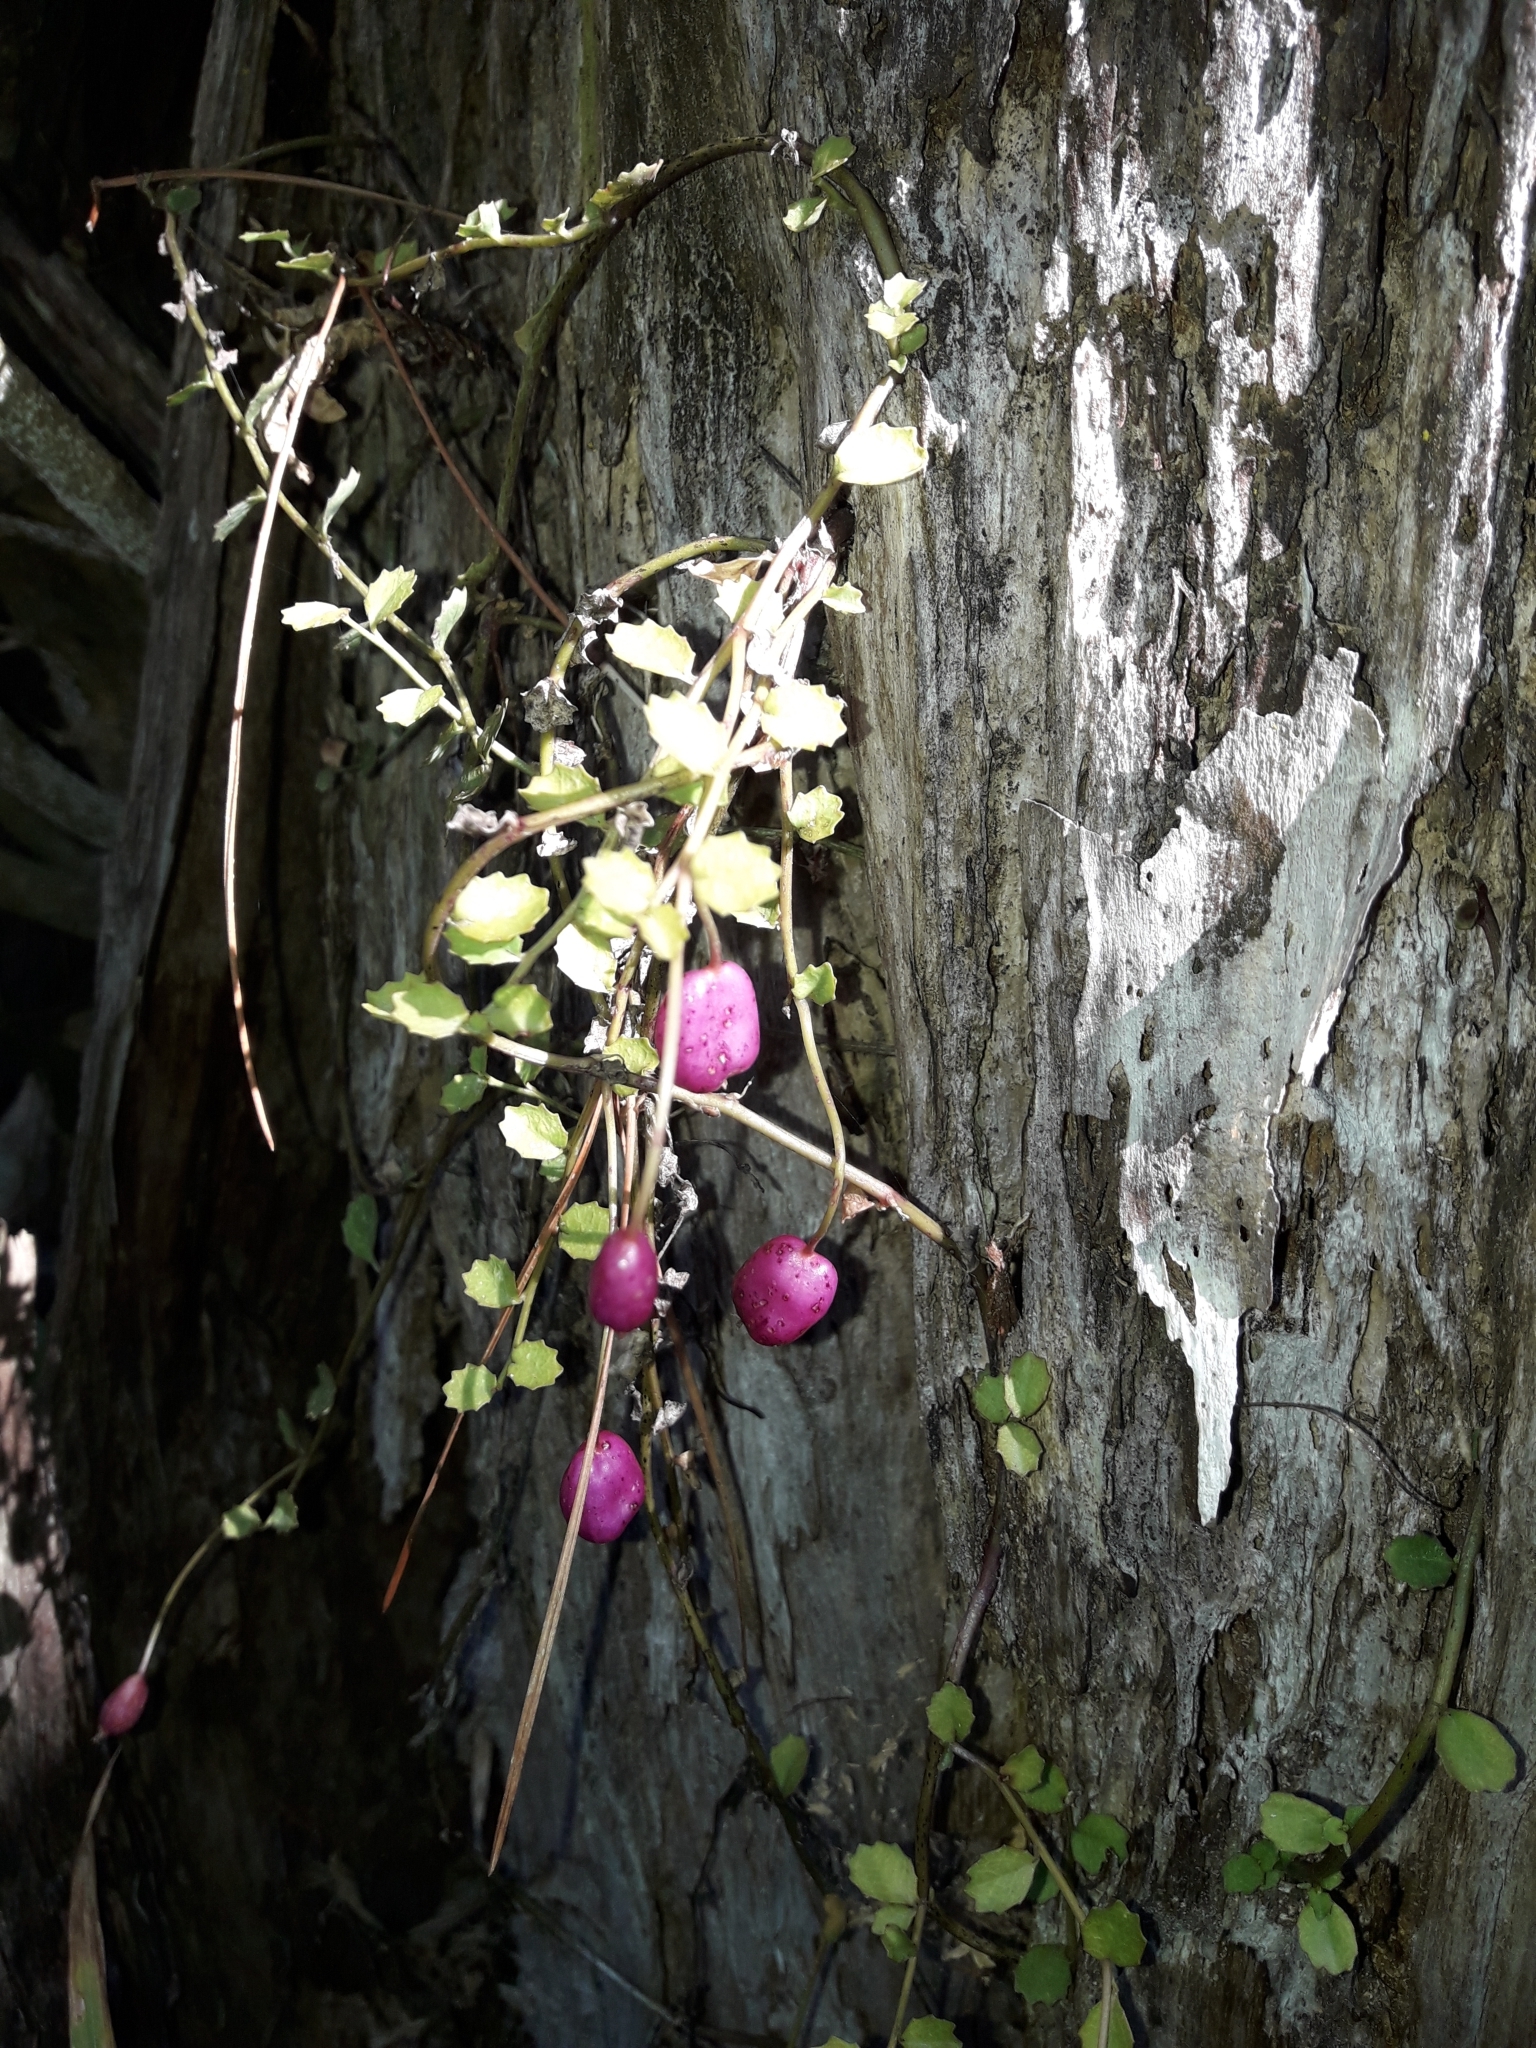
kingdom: Plantae
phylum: Tracheophyta
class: Magnoliopsida
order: Asterales
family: Campanulaceae
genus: Lobelia
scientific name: Lobelia angulata
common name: Lawn lobelia
